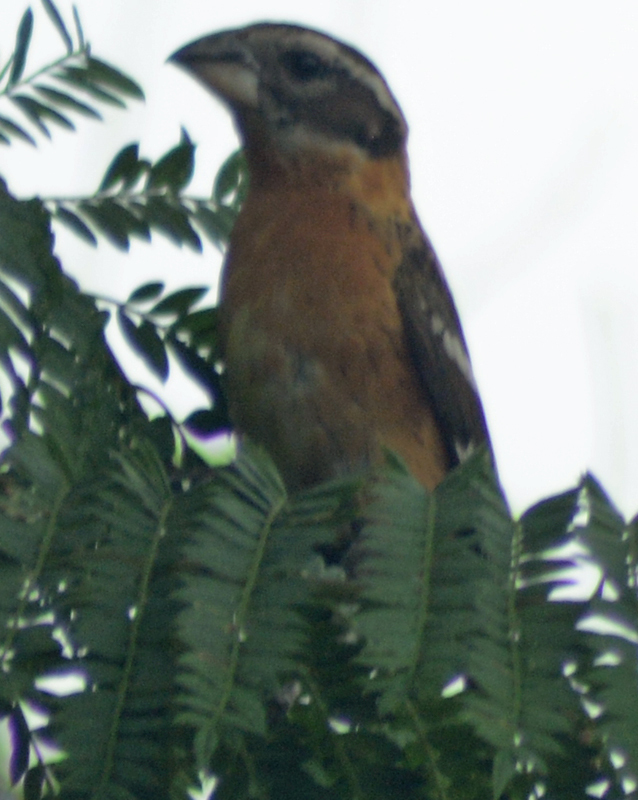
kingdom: Animalia
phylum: Chordata
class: Aves
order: Passeriformes
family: Cardinalidae
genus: Pheucticus
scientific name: Pheucticus melanocephalus
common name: Black-headed grosbeak
